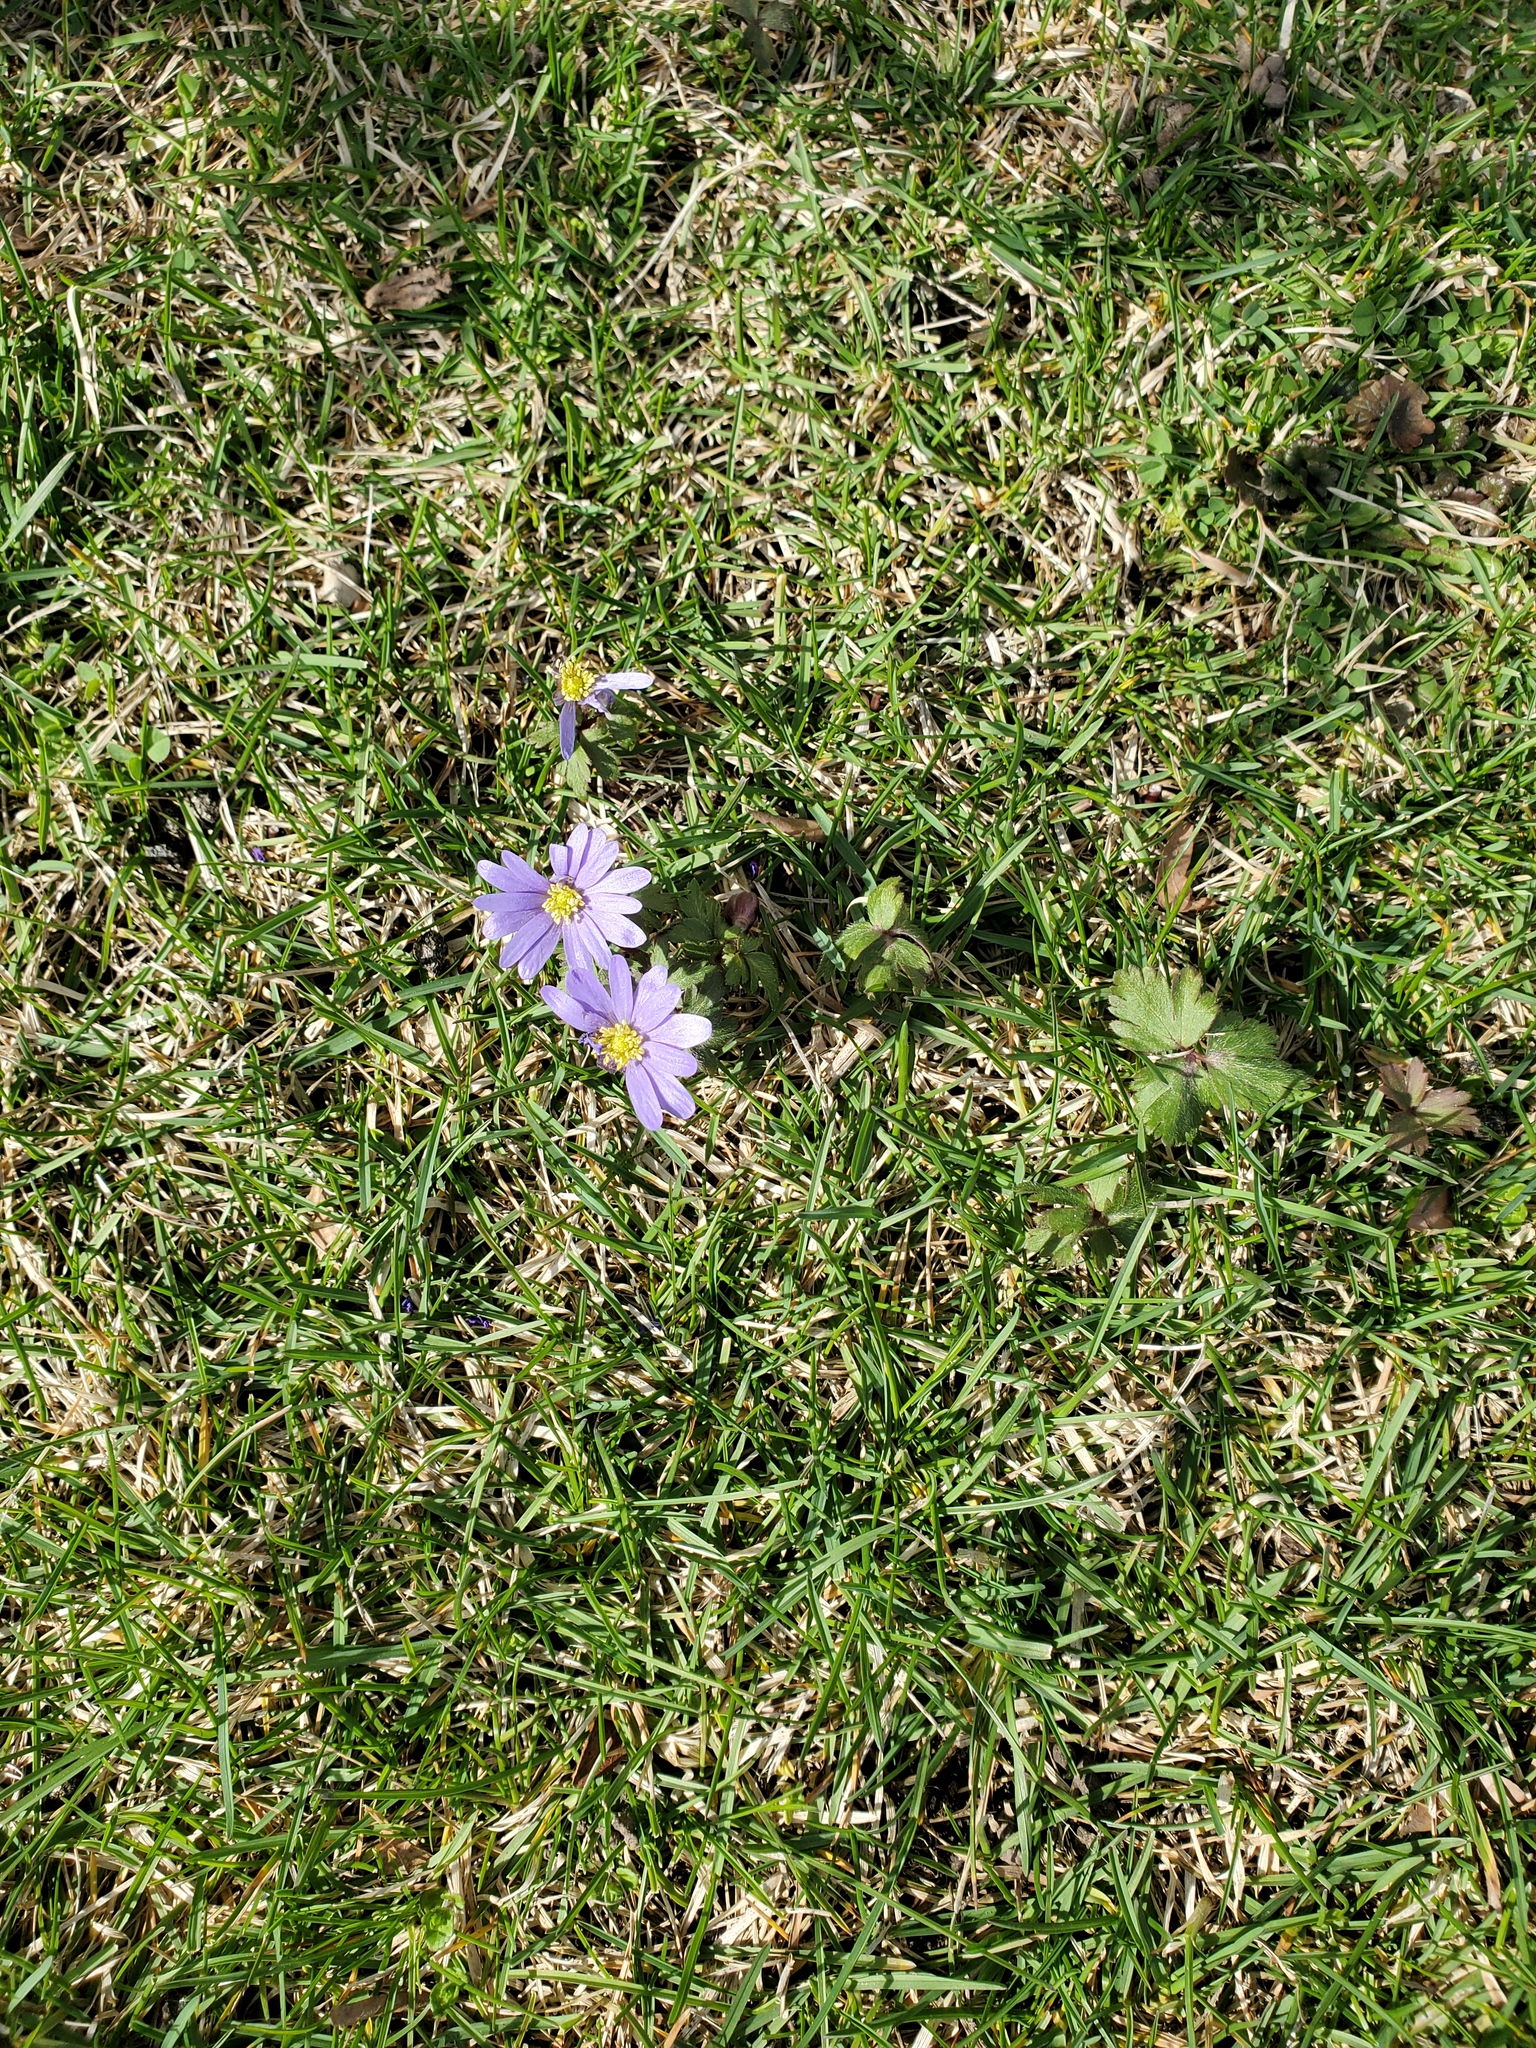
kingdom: Plantae
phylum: Tracheophyta
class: Magnoliopsida
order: Ranunculales
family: Ranunculaceae
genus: Anemone
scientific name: Anemone blanda
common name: Balkan anemone
